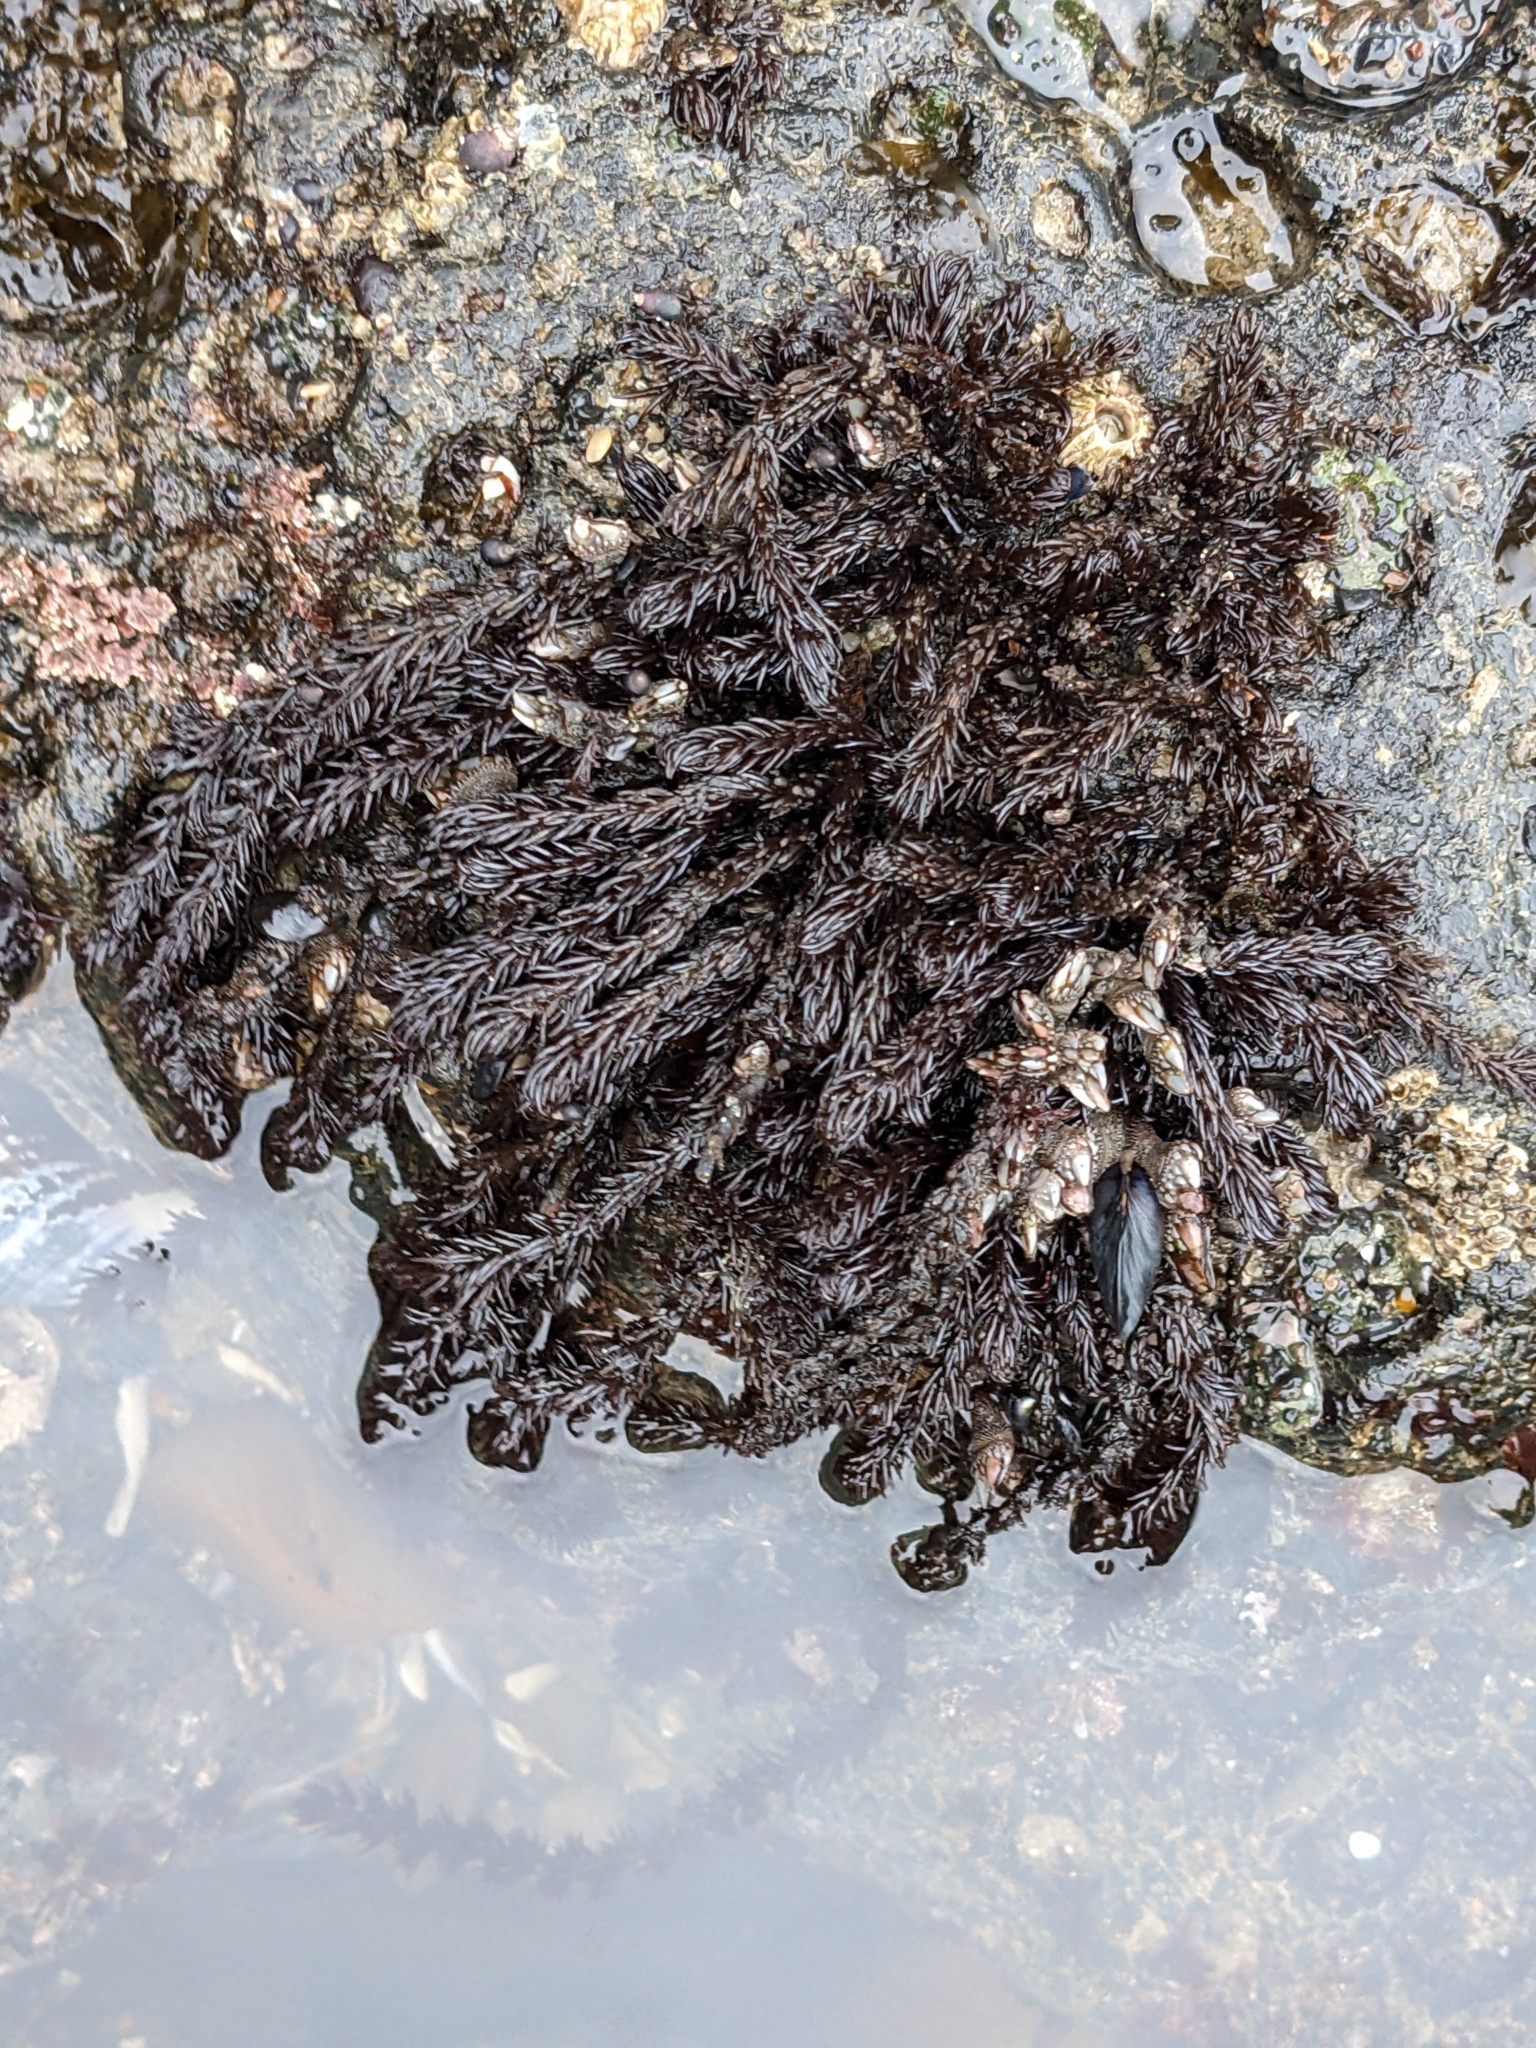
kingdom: Plantae
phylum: Rhodophyta
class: Florideophyceae
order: Ceramiales
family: Rhodomelaceae
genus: Neorhodomela
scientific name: Neorhodomela larix
